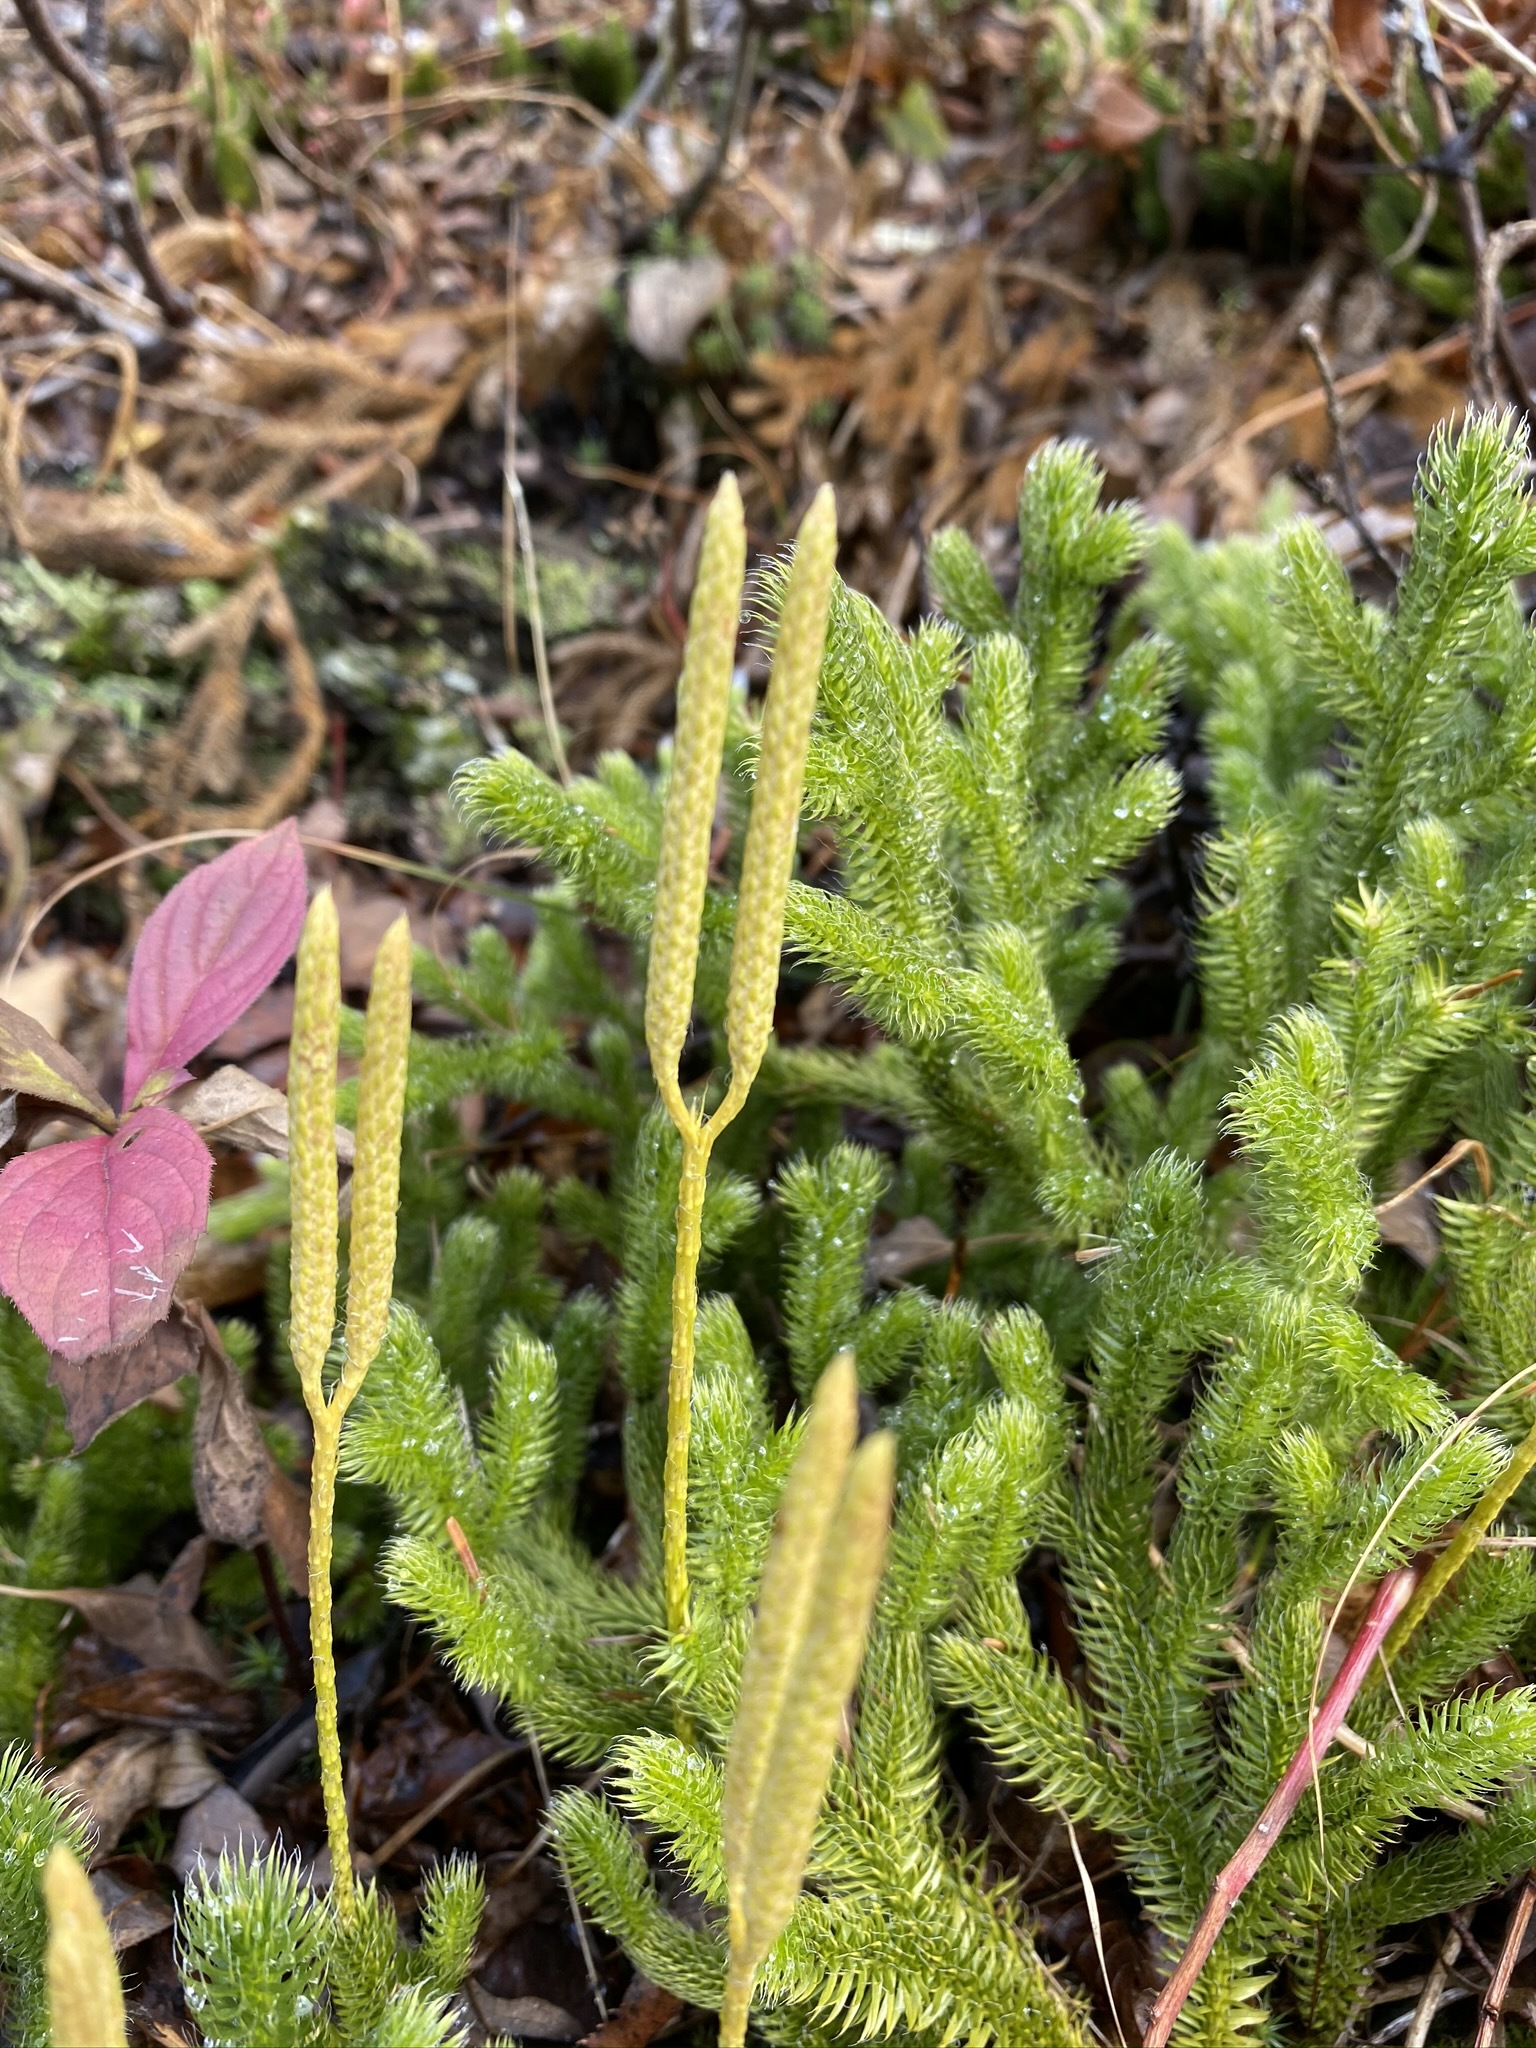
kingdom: Plantae
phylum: Tracheophyta
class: Lycopodiopsida
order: Lycopodiales
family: Lycopodiaceae
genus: Lycopodium
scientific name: Lycopodium clavatum
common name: Stag's-horn clubmoss
